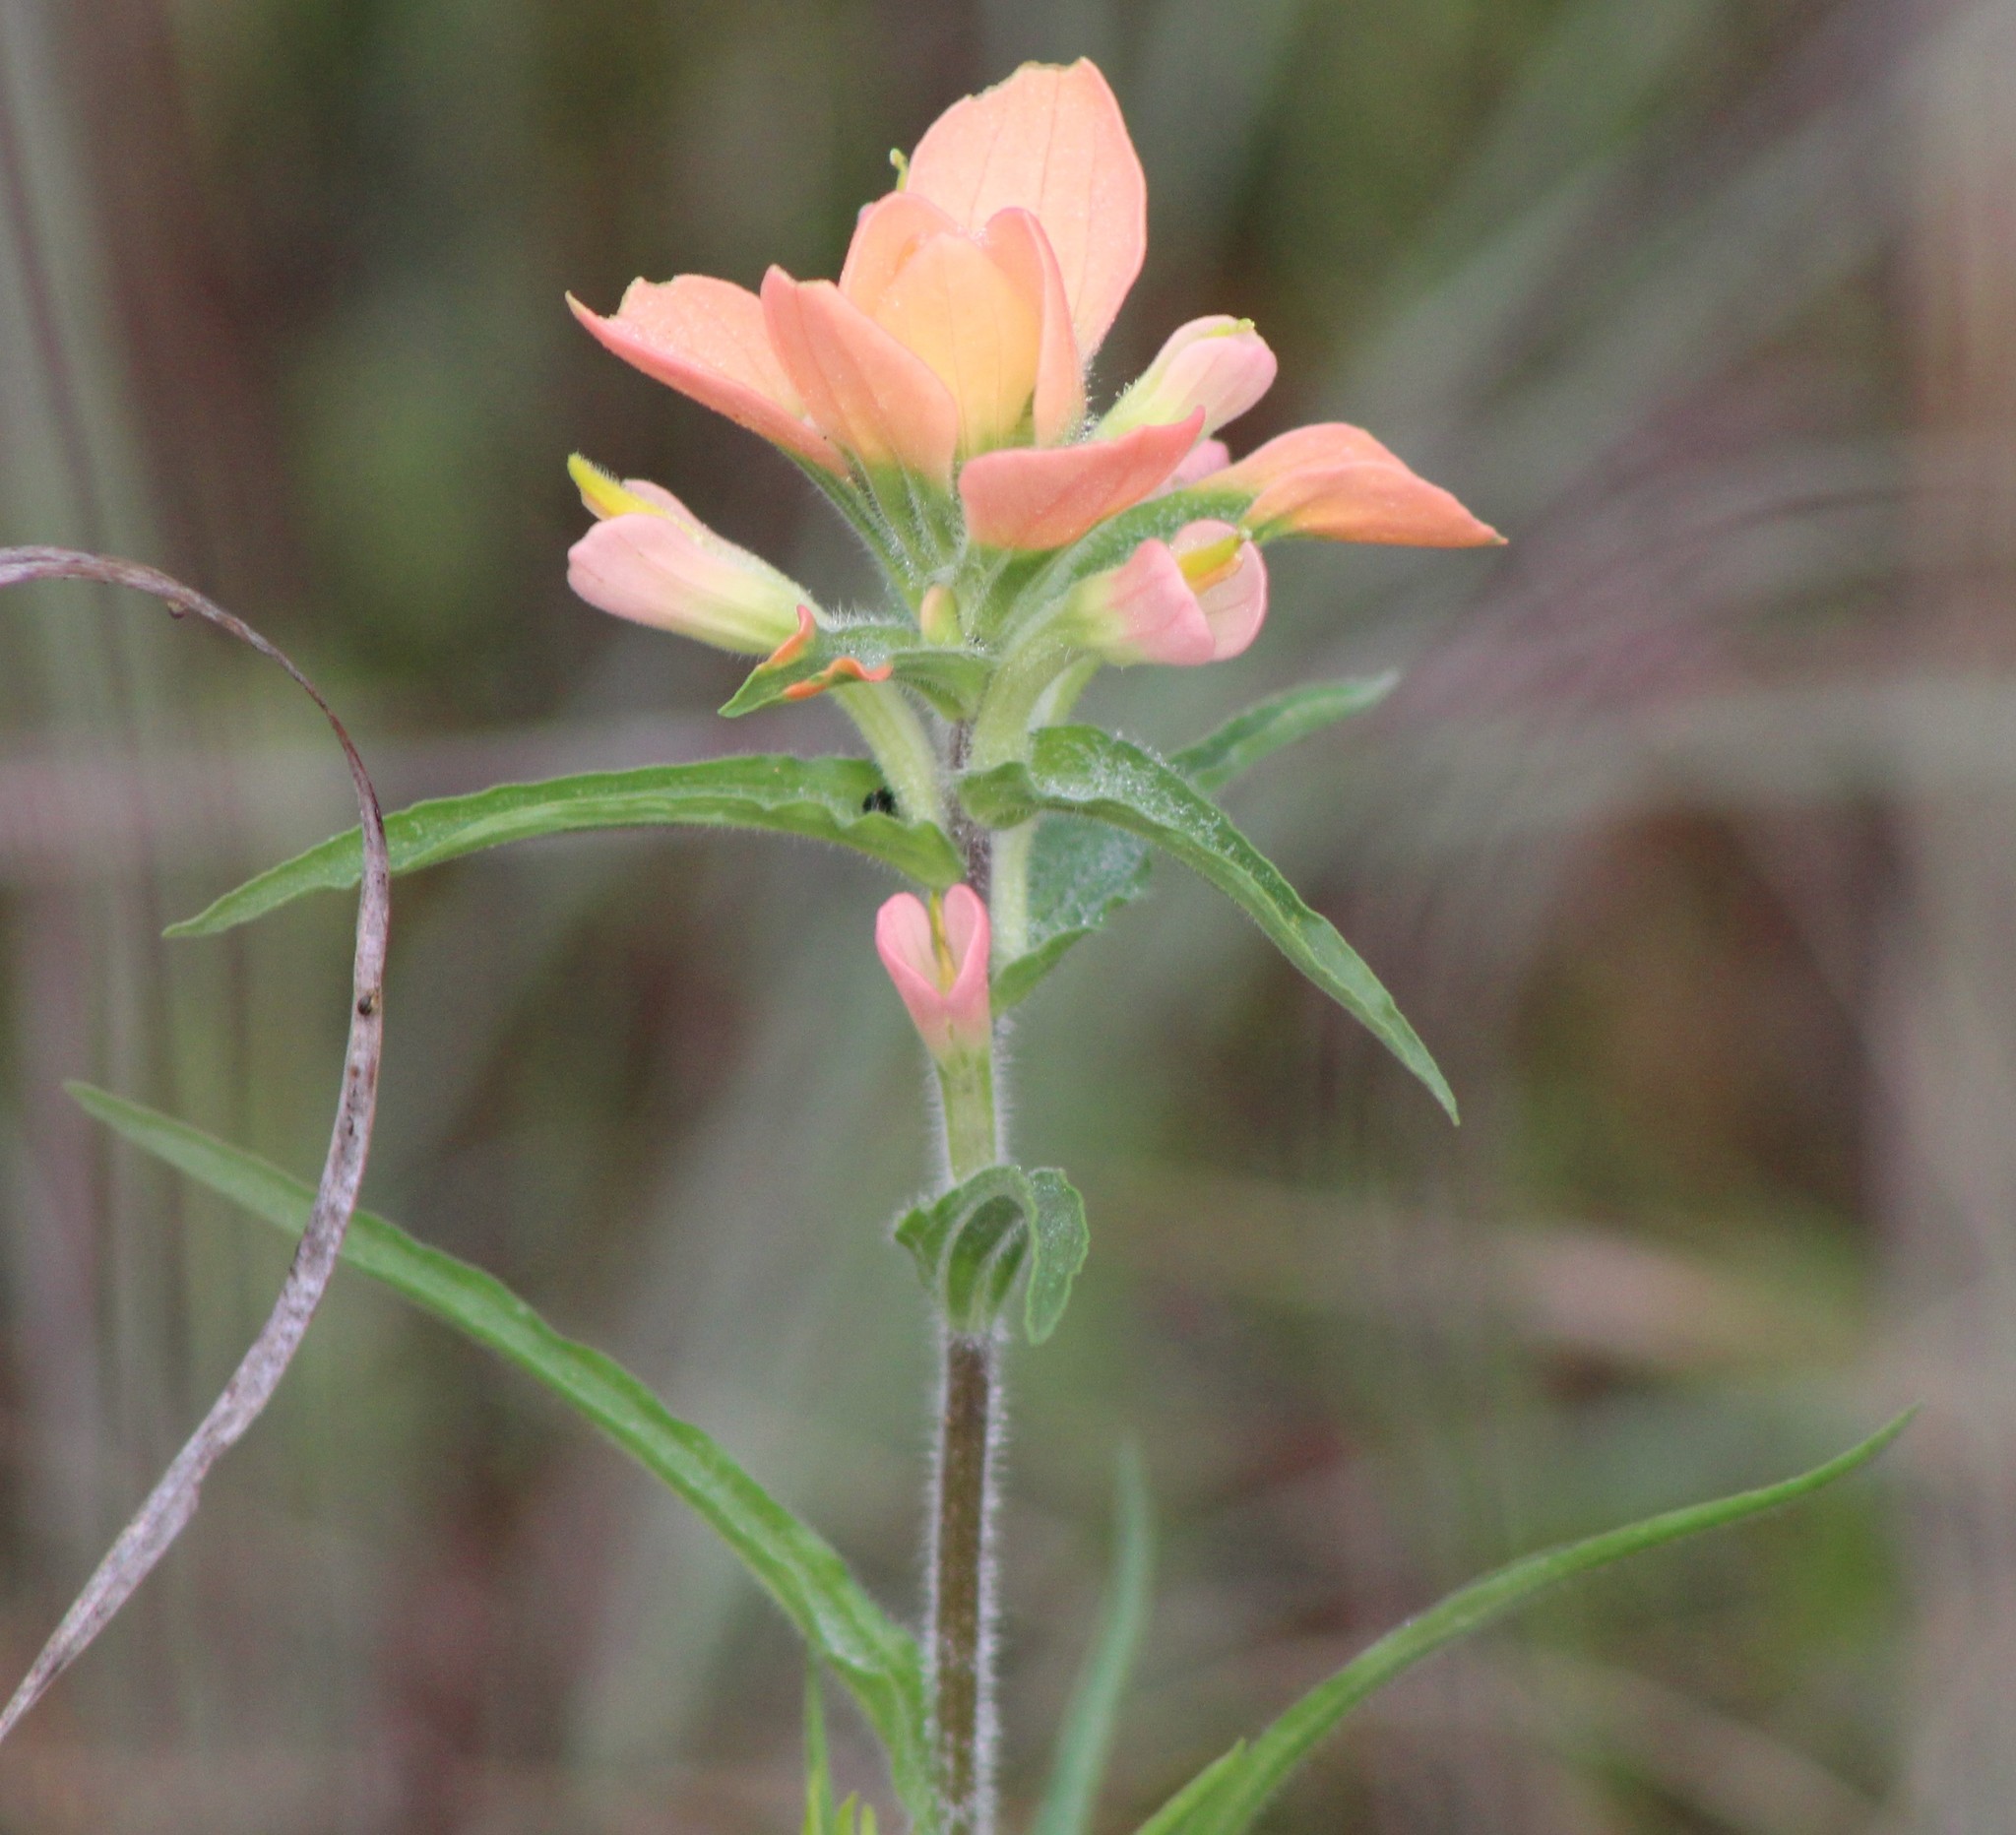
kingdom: Plantae
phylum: Tracheophyta
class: Magnoliopsida
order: Lamiales
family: Orobanchaceae
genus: Castilleja
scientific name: Castilleja indivisa
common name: Texas paintbrush
